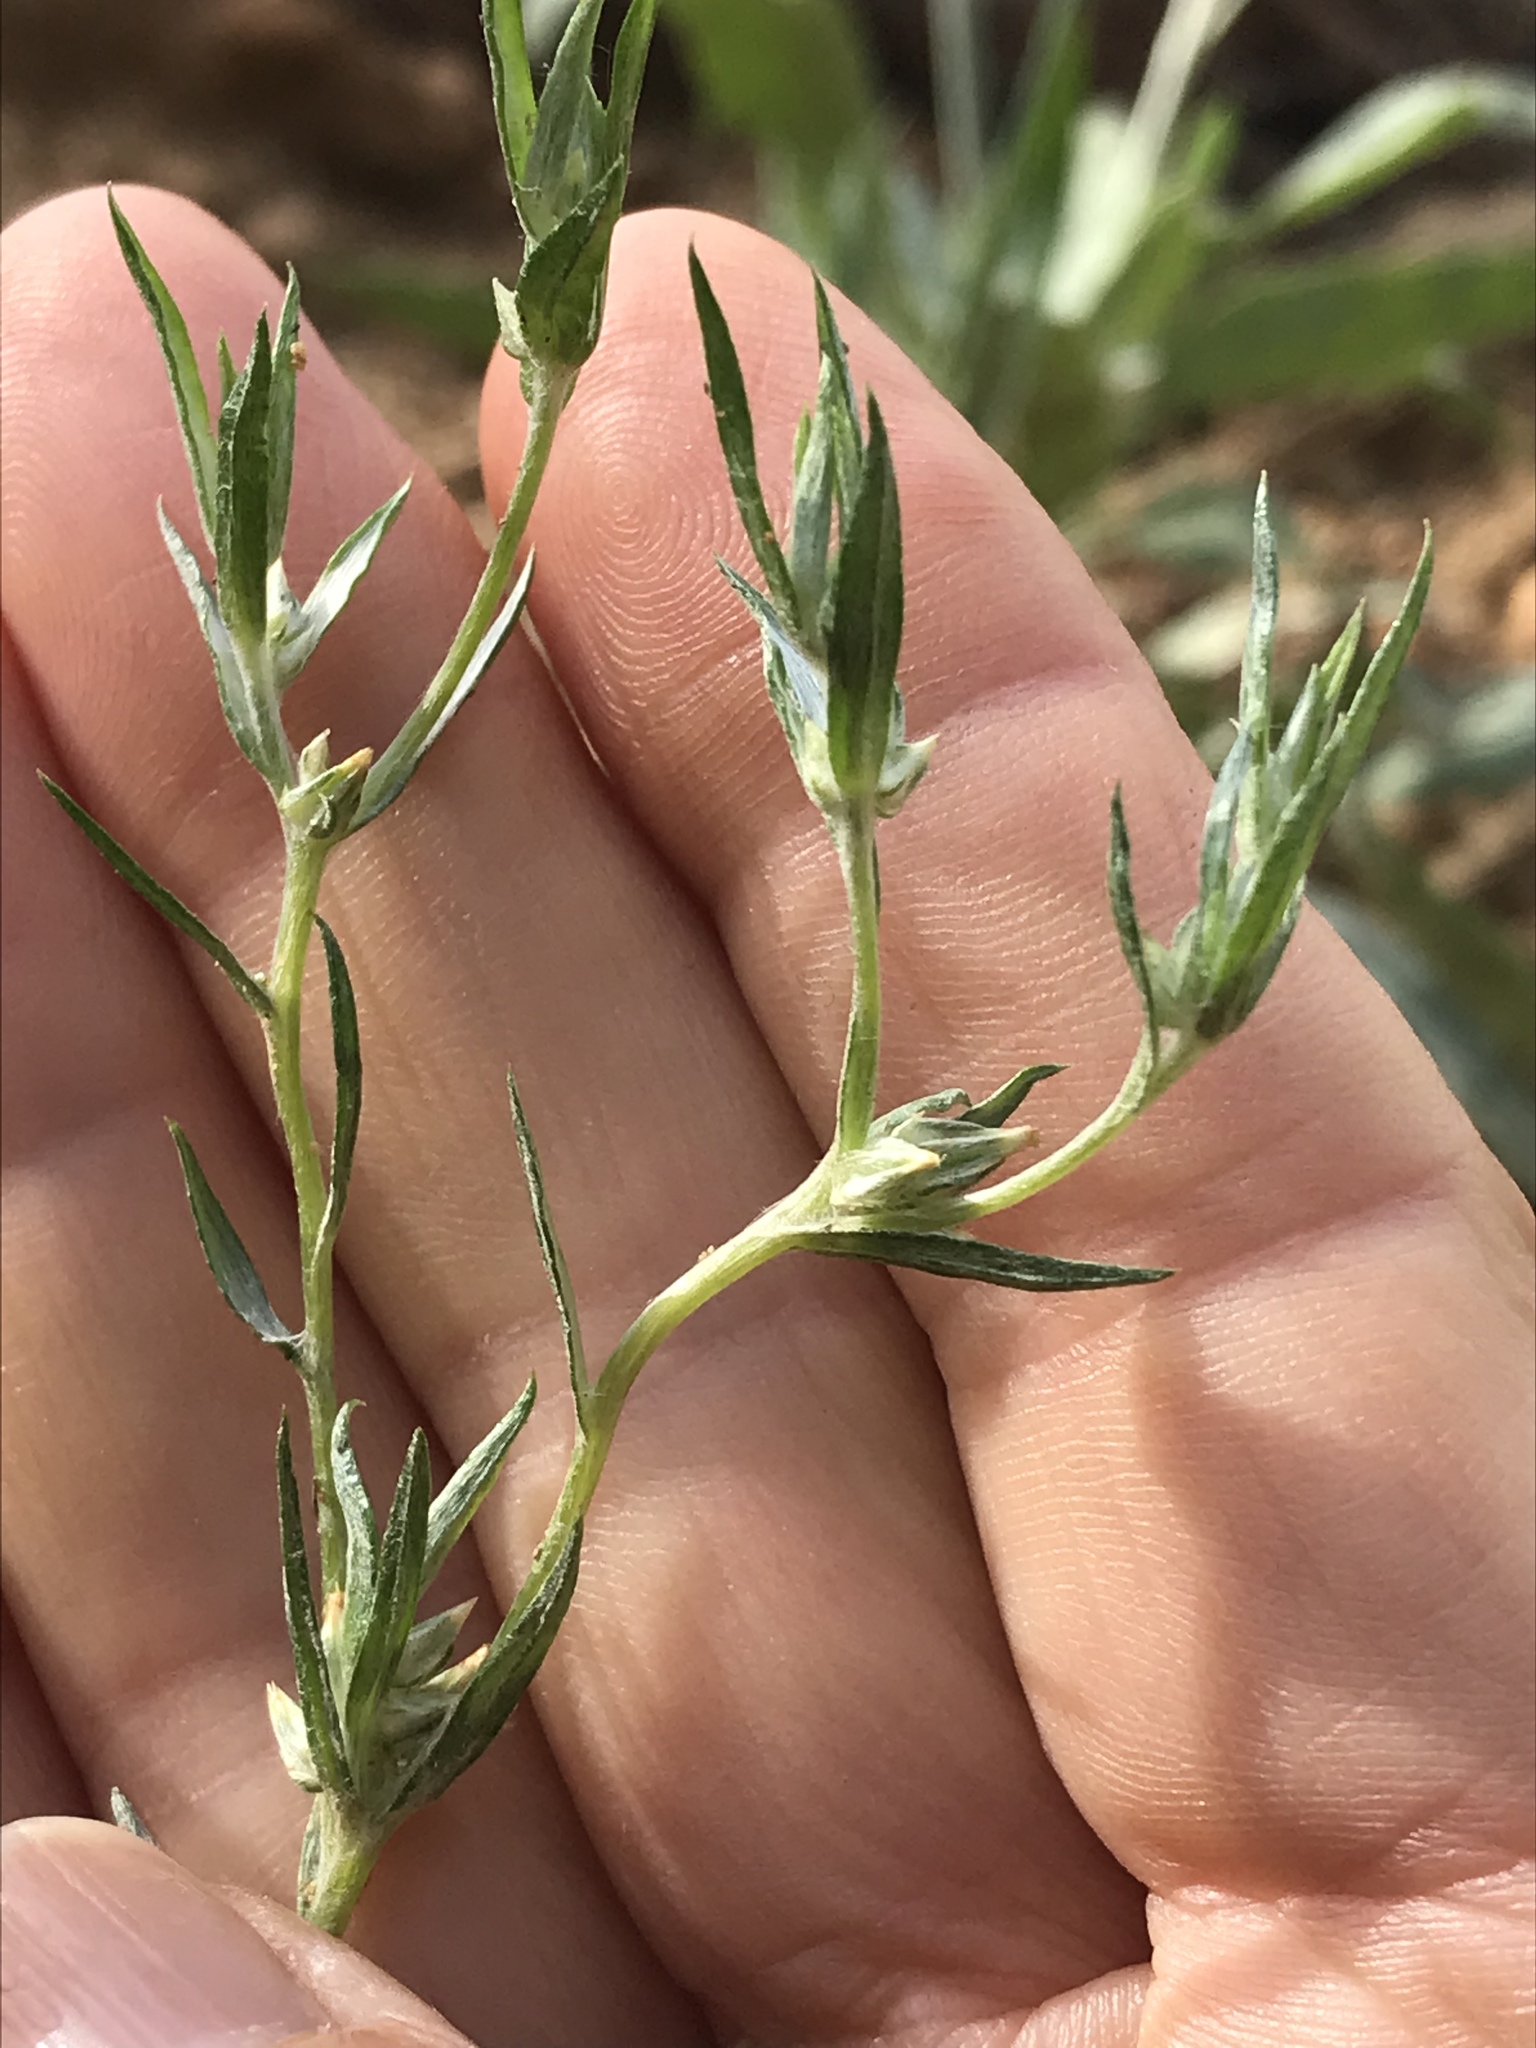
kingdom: Plantae
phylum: Tracheophyta
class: Magnoliopsida
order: Asterales
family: Asteraceae
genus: Logfia
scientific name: Logfia gallica
